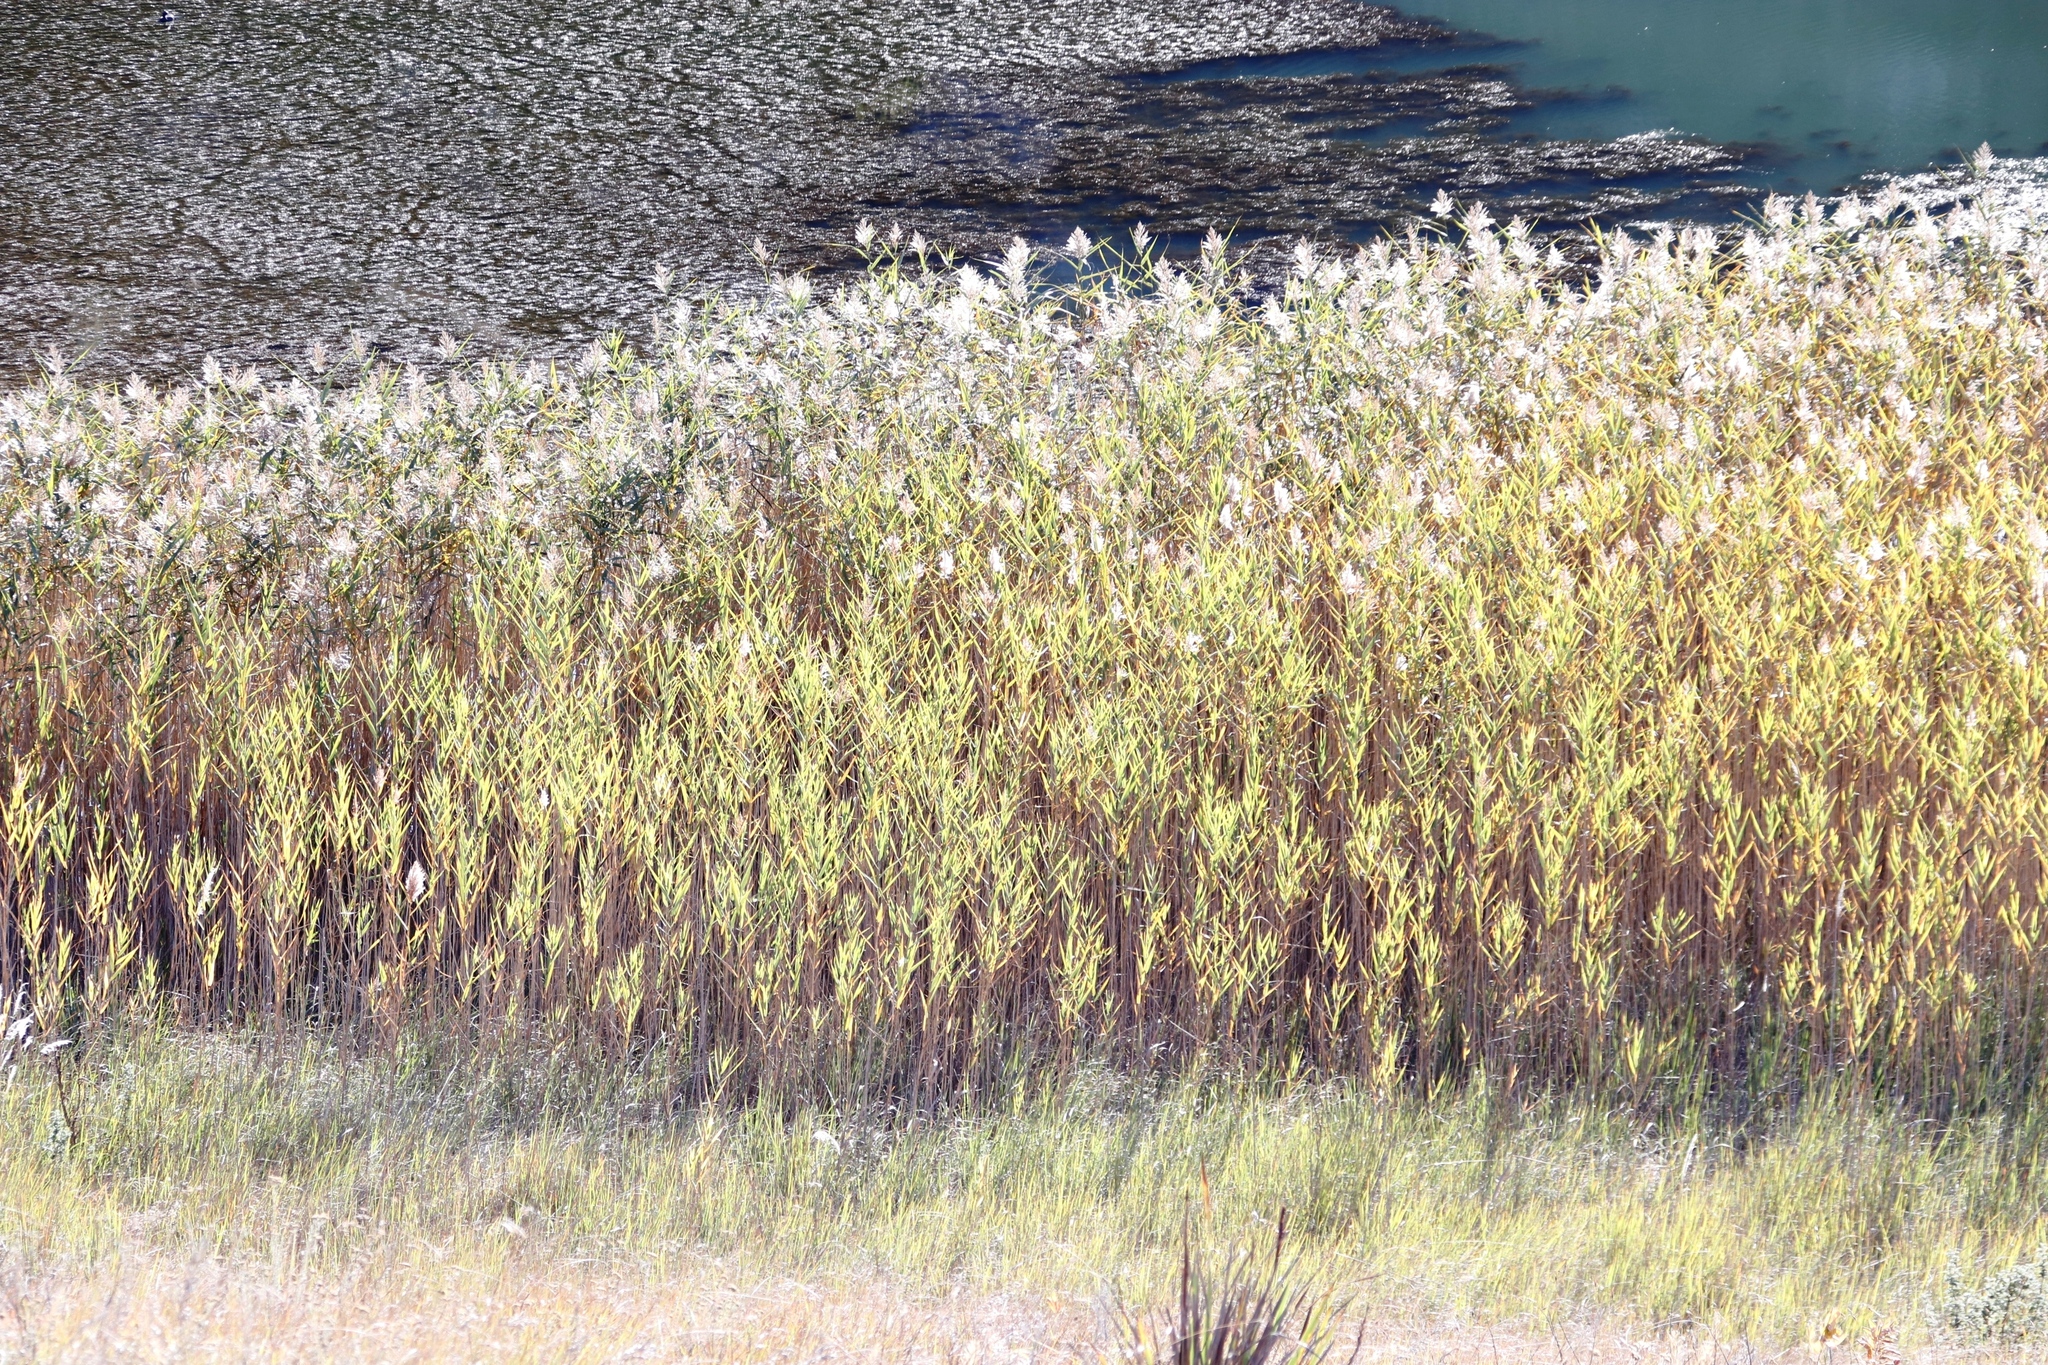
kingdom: Plantae
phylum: Tracheophyta
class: Liliopsida
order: Poales
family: Poaceae
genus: Phragmites
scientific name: Phragmites australis
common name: Common reed
